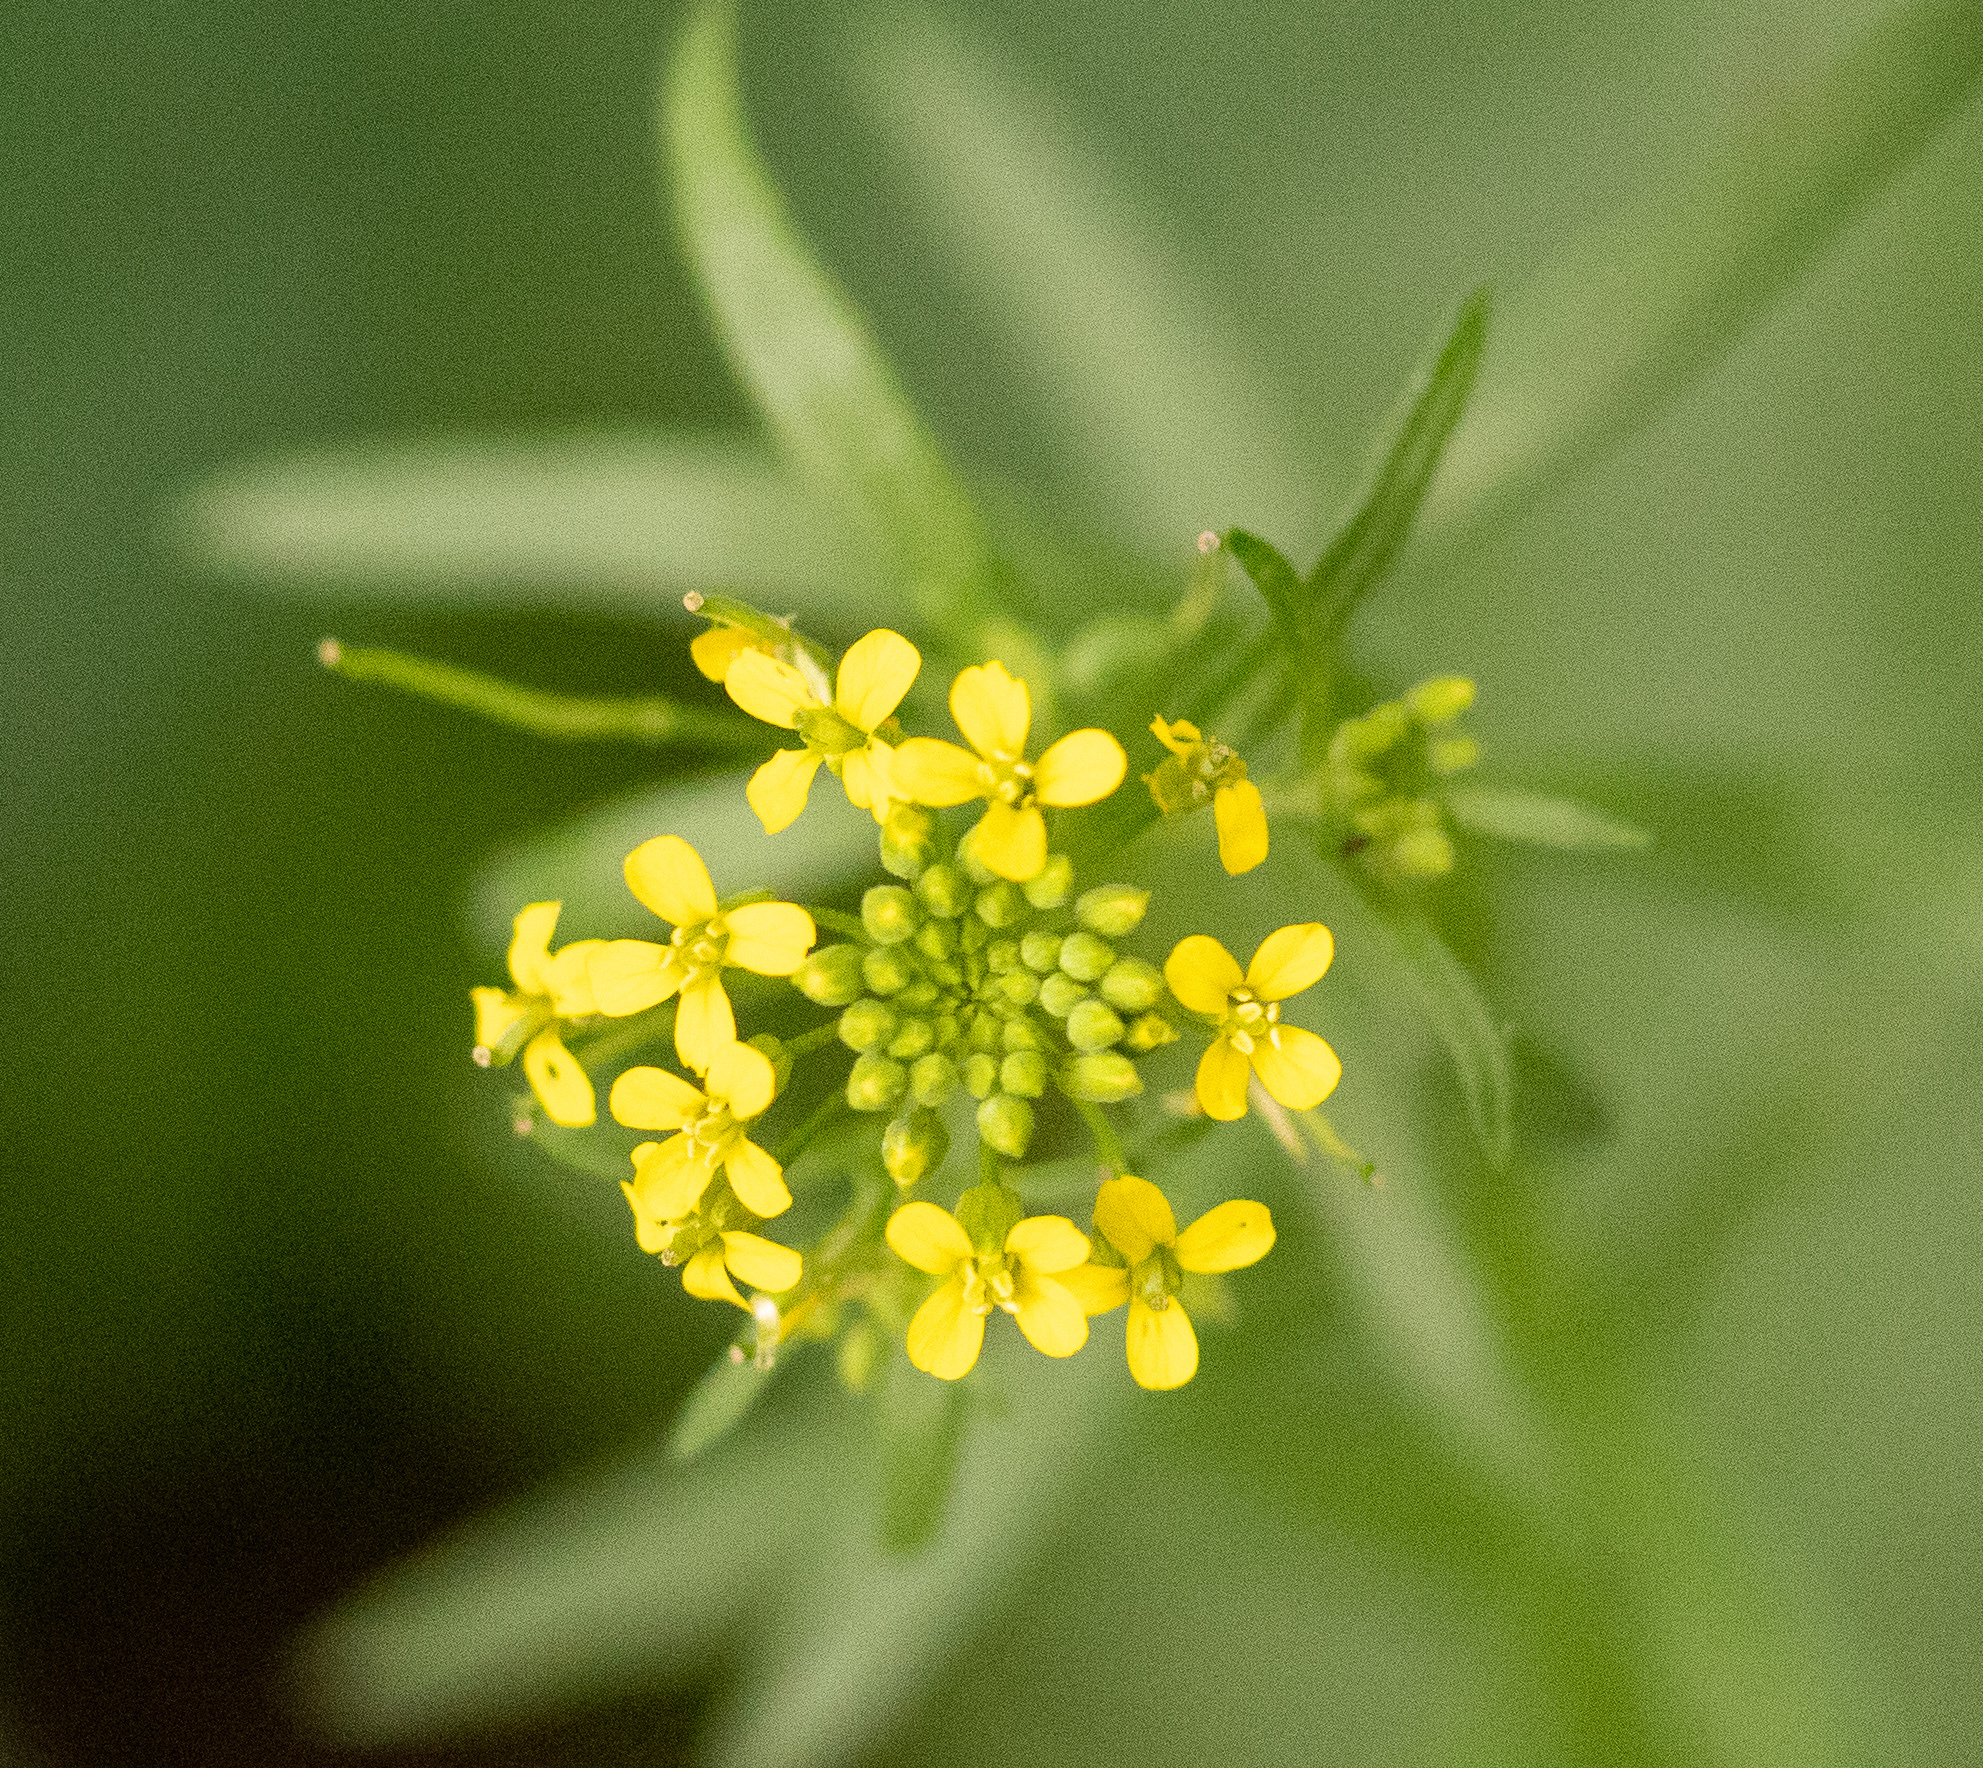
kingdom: Plantae
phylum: Tracheophyta
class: Magnoliopsida
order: Brassicales
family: Brassicaceae
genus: Erysimum
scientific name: Erysimum cheiranthoides
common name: Treacle mustard
